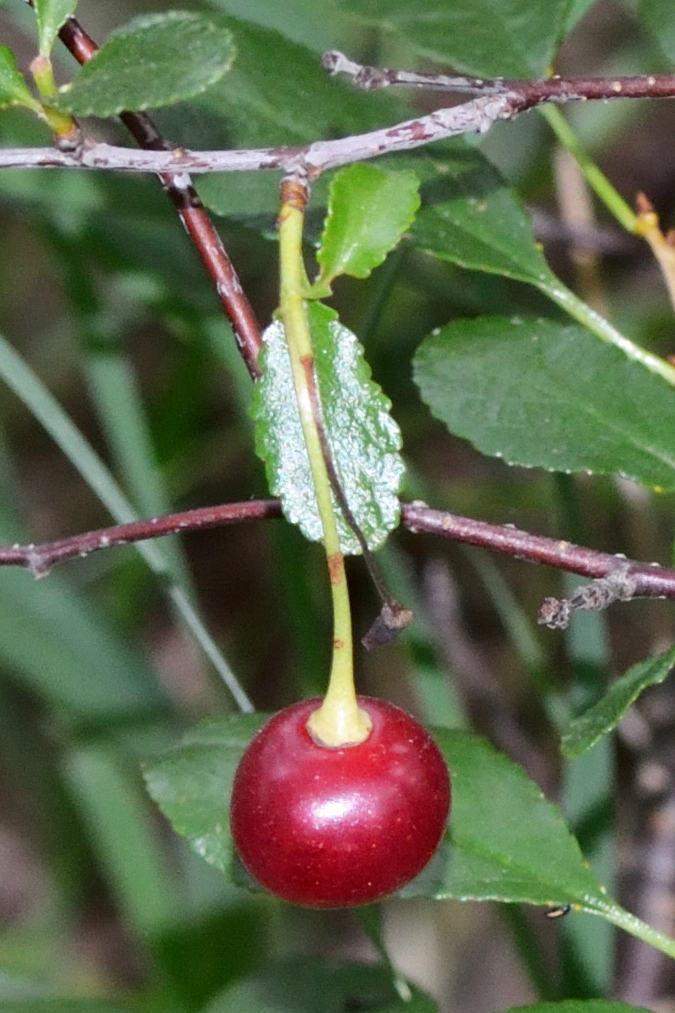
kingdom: Plantae
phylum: Tracheophyta
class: Magnoliopsida
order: Rosales
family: Rosaceae
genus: Prunus
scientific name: Prunus fruticosa
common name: European dwarf cherry
